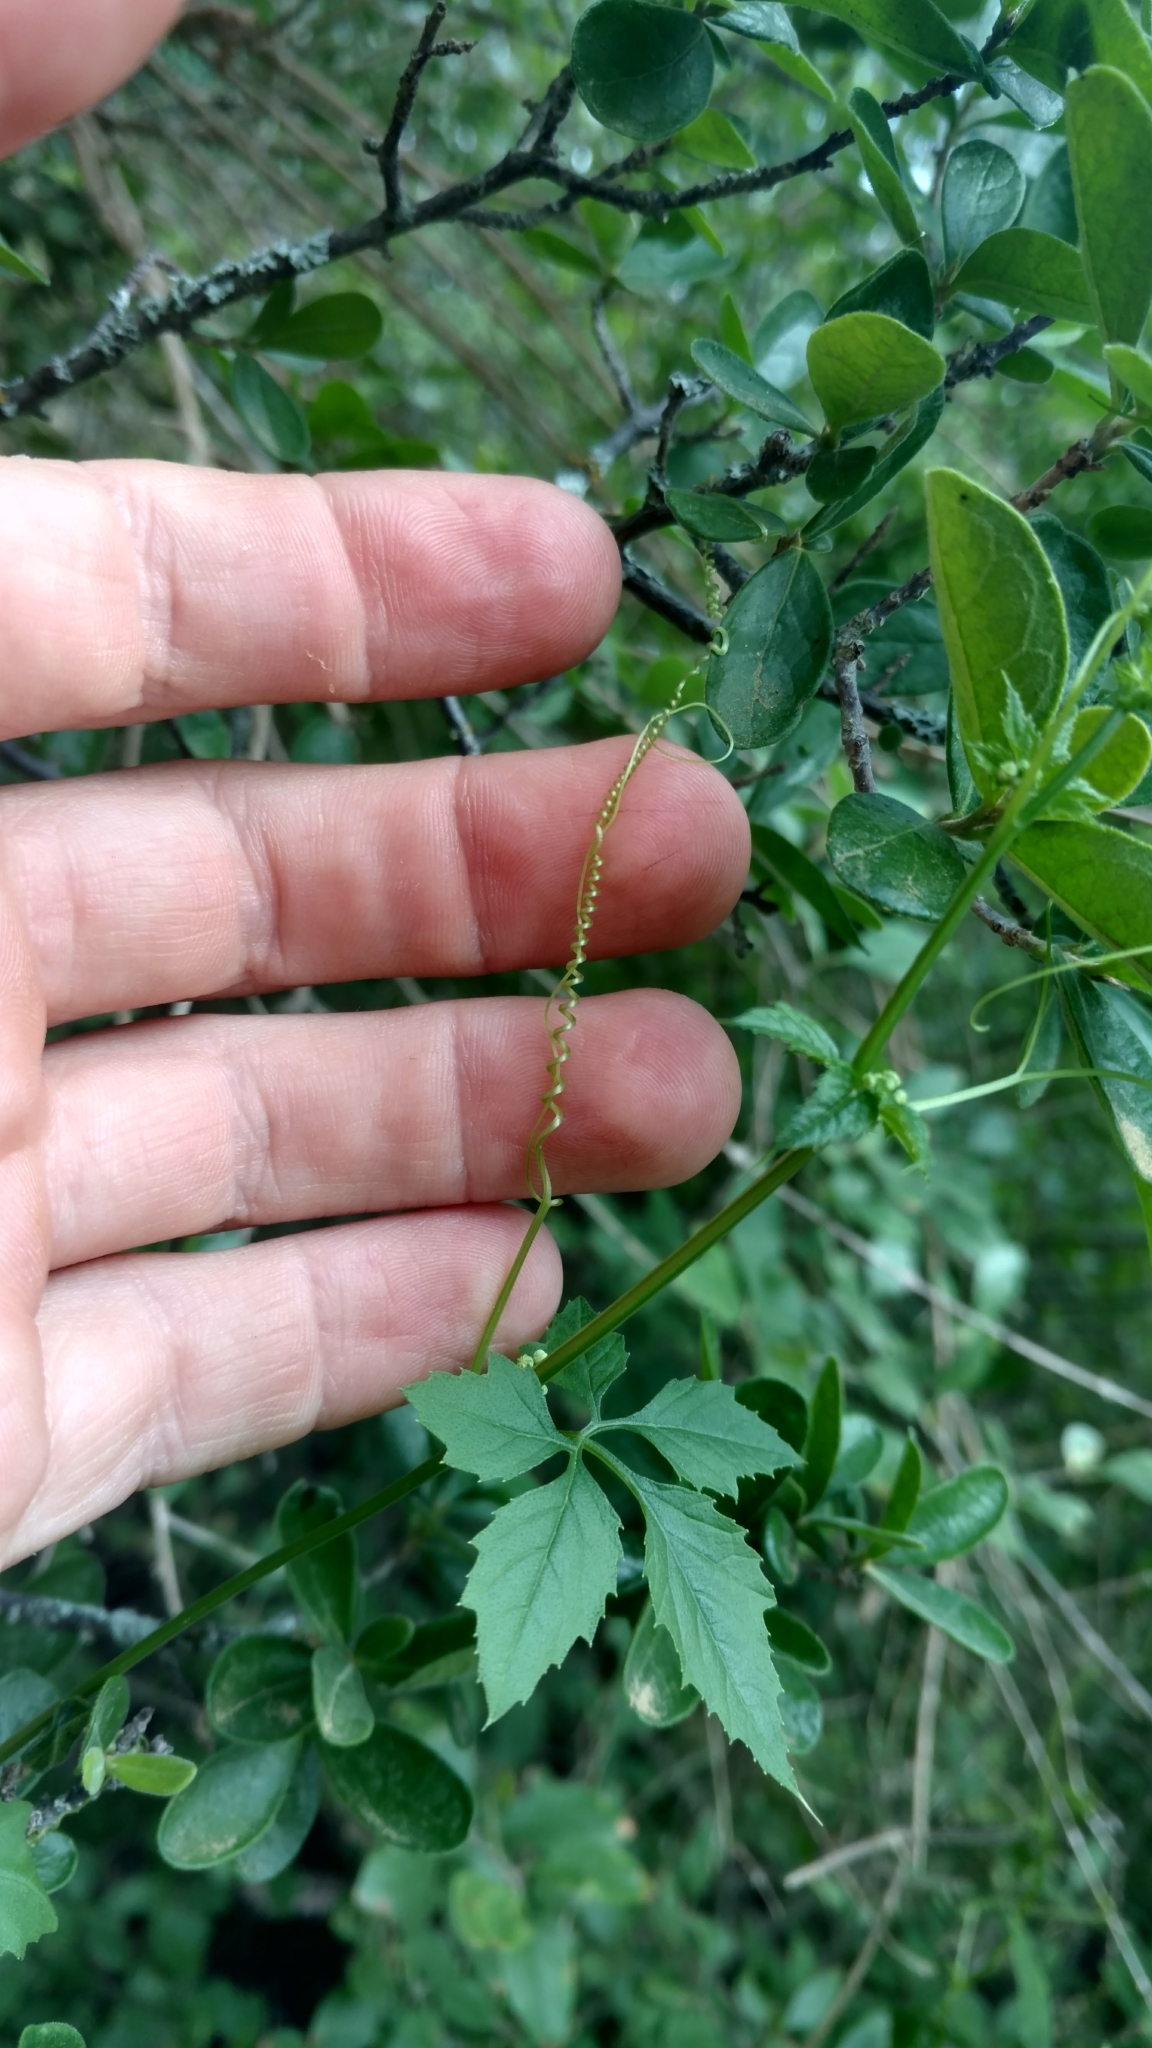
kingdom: Plantae
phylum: Tracheophyta
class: Magnoliopsida
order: Cucurbitales
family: Cucurbitaceae
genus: Cyclanthera
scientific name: Cyclanthera naudiniana
